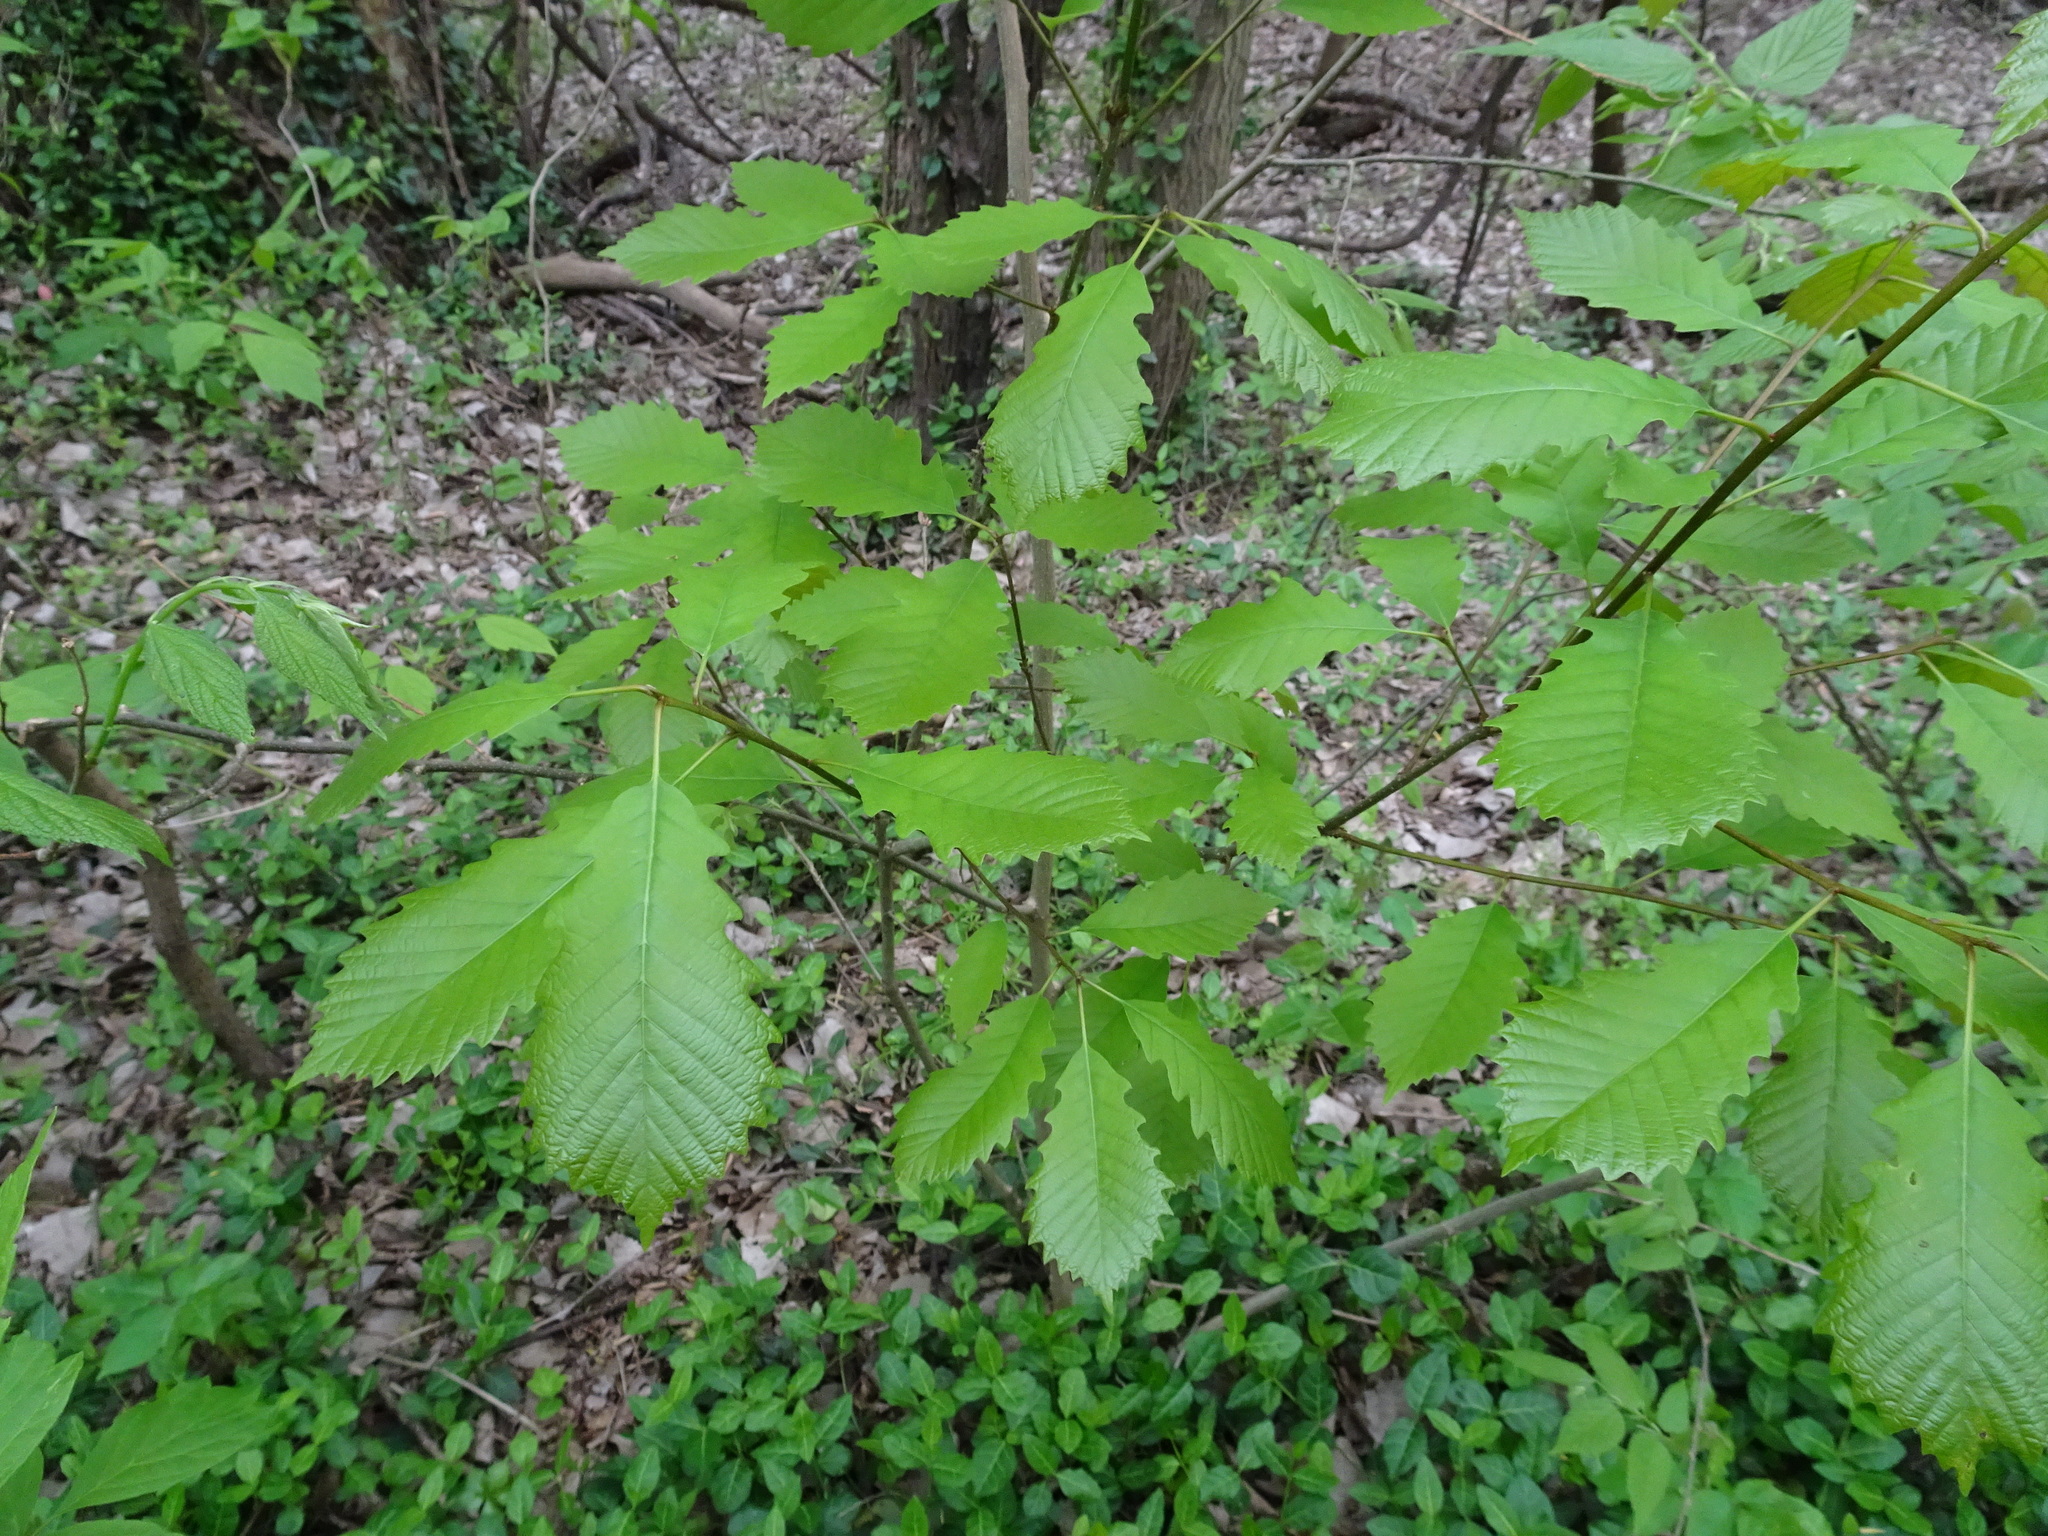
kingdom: Plantae
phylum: Tracheophyta
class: Magnoliopsida
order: Fagales
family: Fagaceae
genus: Quercus
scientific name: Quercus muehlenbergii
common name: Chinkapin oak
